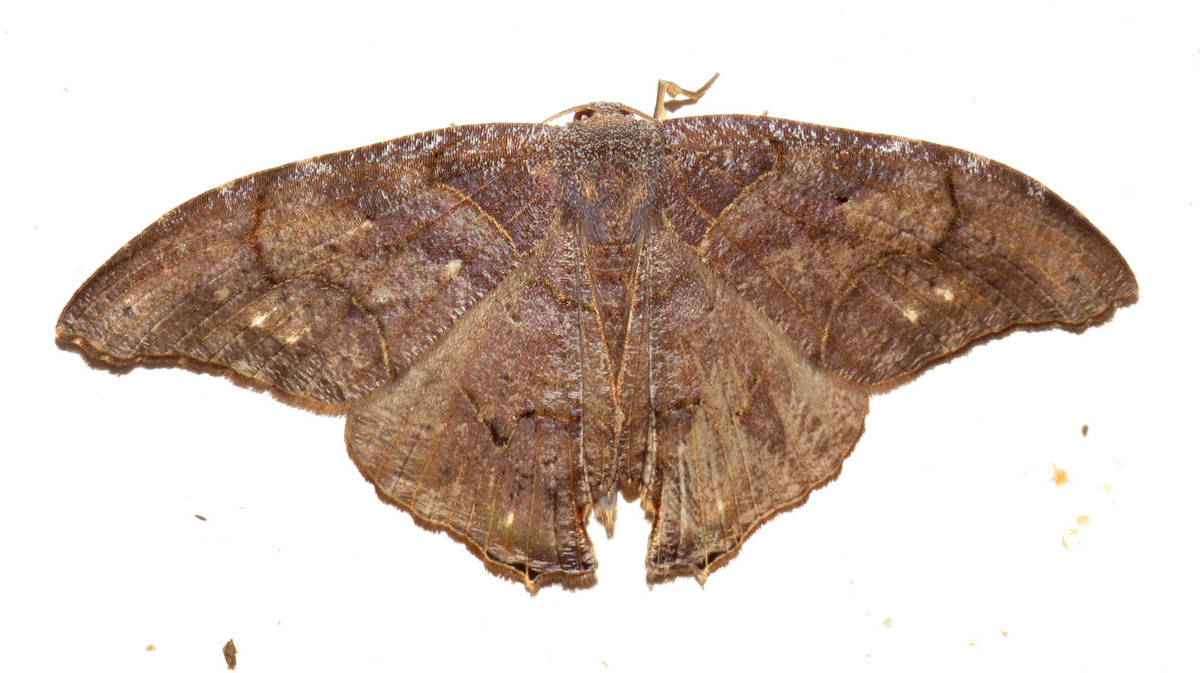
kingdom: Animalia
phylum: Arthropoda
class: Insecta
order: Lepidoptera
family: Uraniidae
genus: Syngria
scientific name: Syngria druidaria
